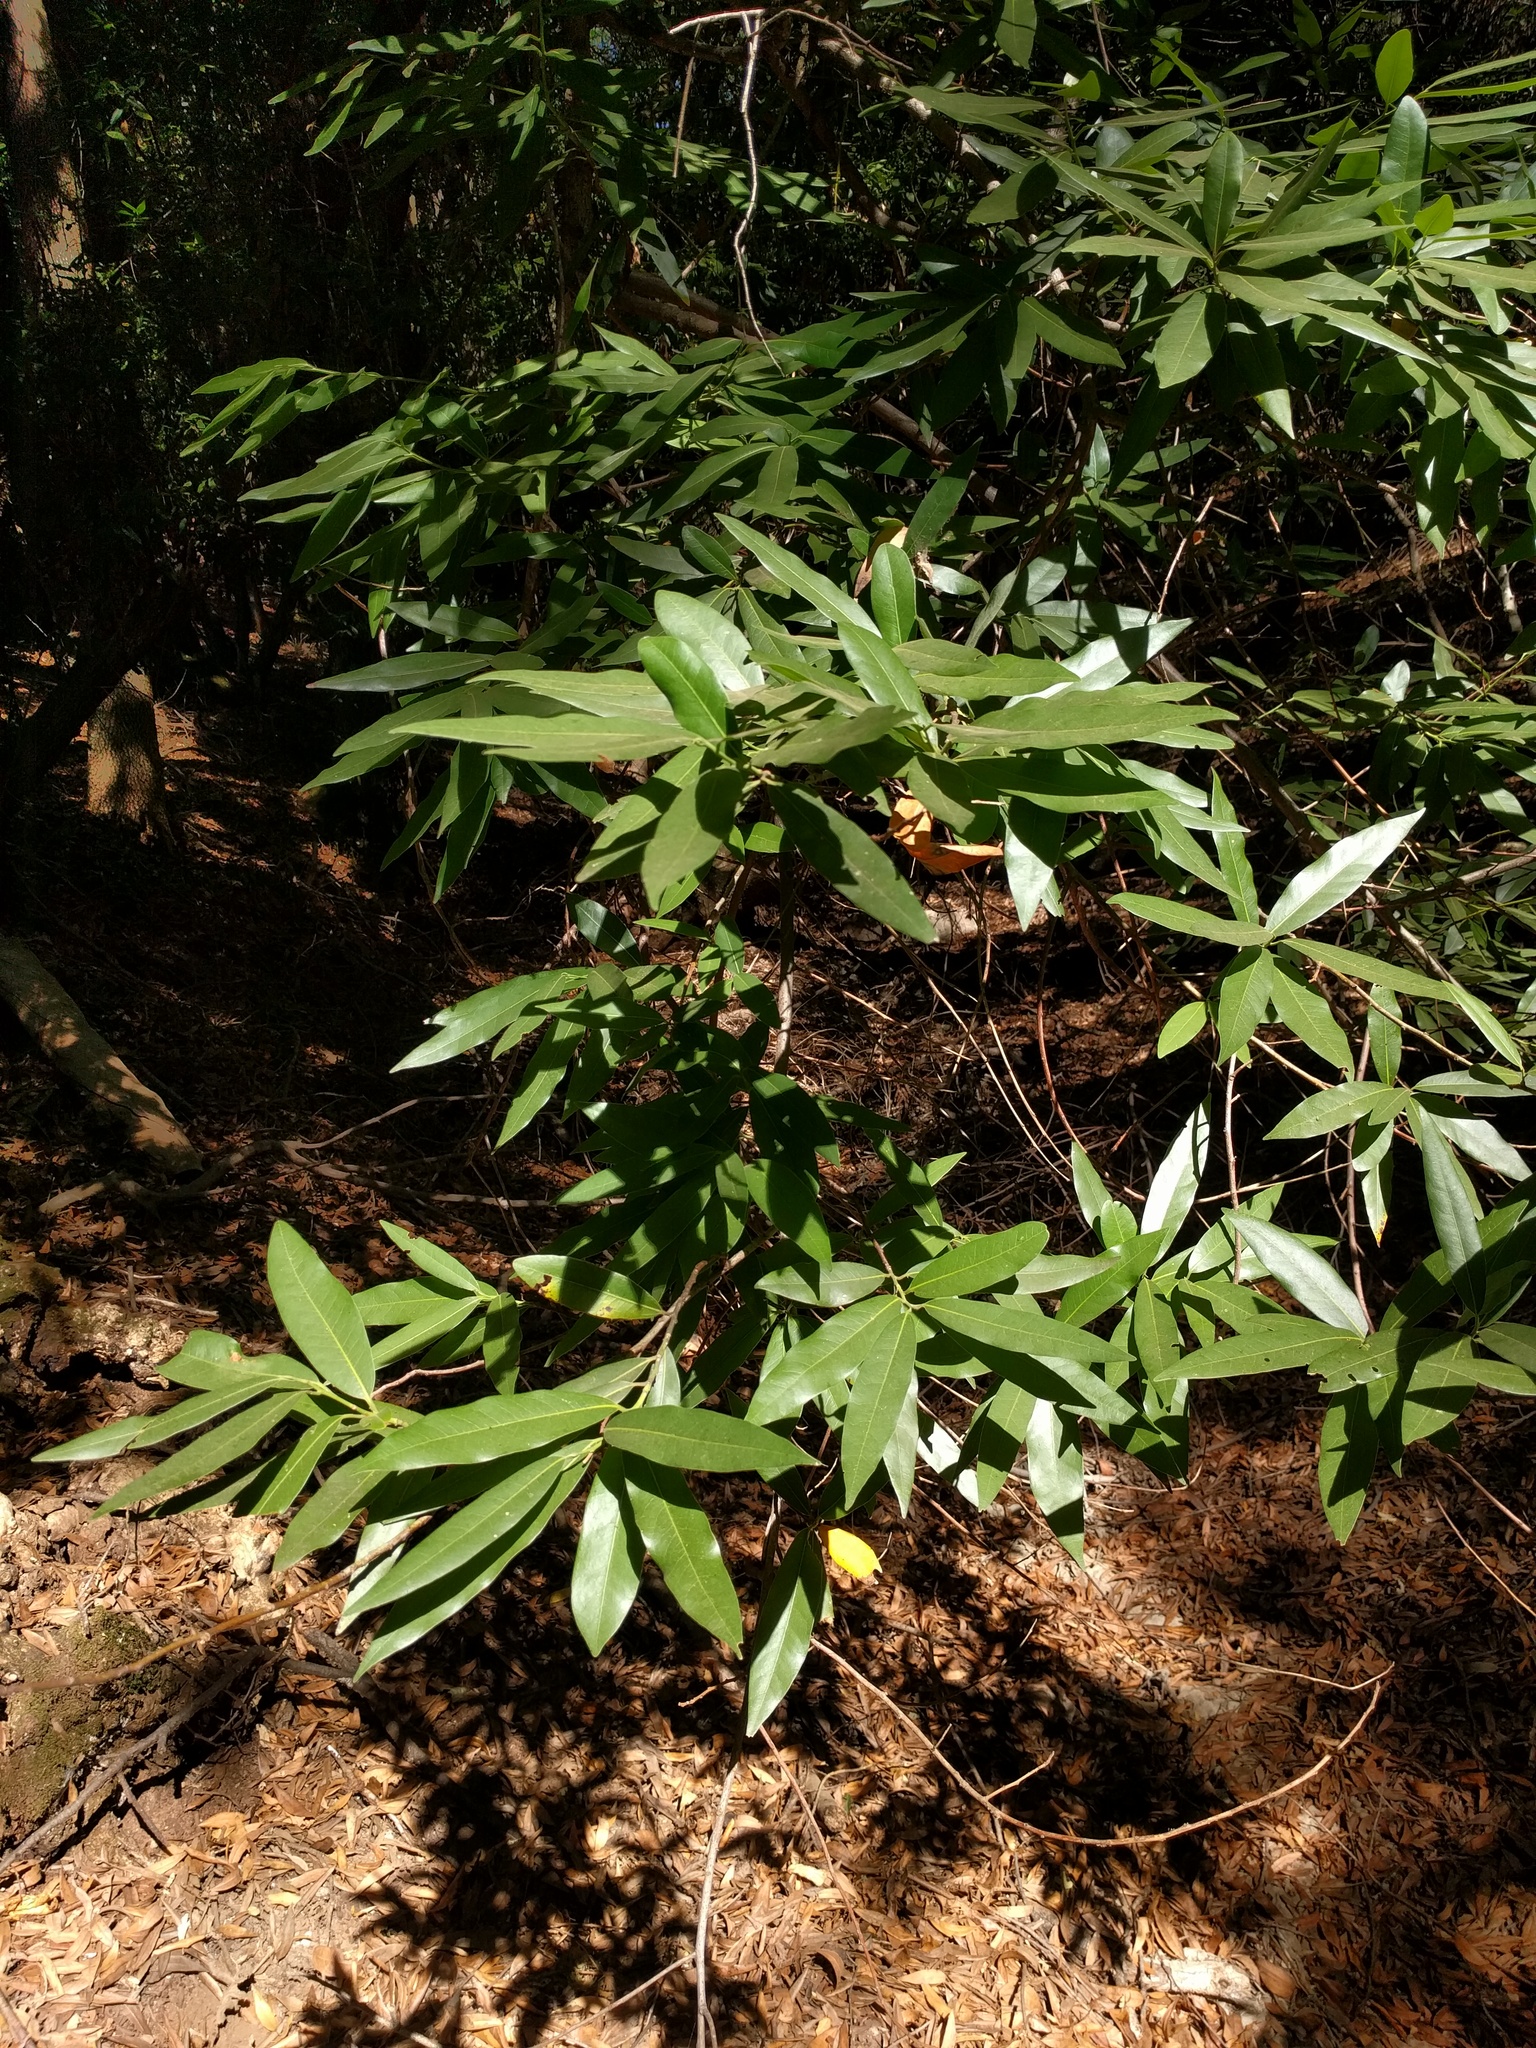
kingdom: Plantae
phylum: Tracheophyta
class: Magnoliopsida
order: Laurales
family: Lauraceae
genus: Umbellularia
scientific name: Umbellularia californica
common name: California bay
